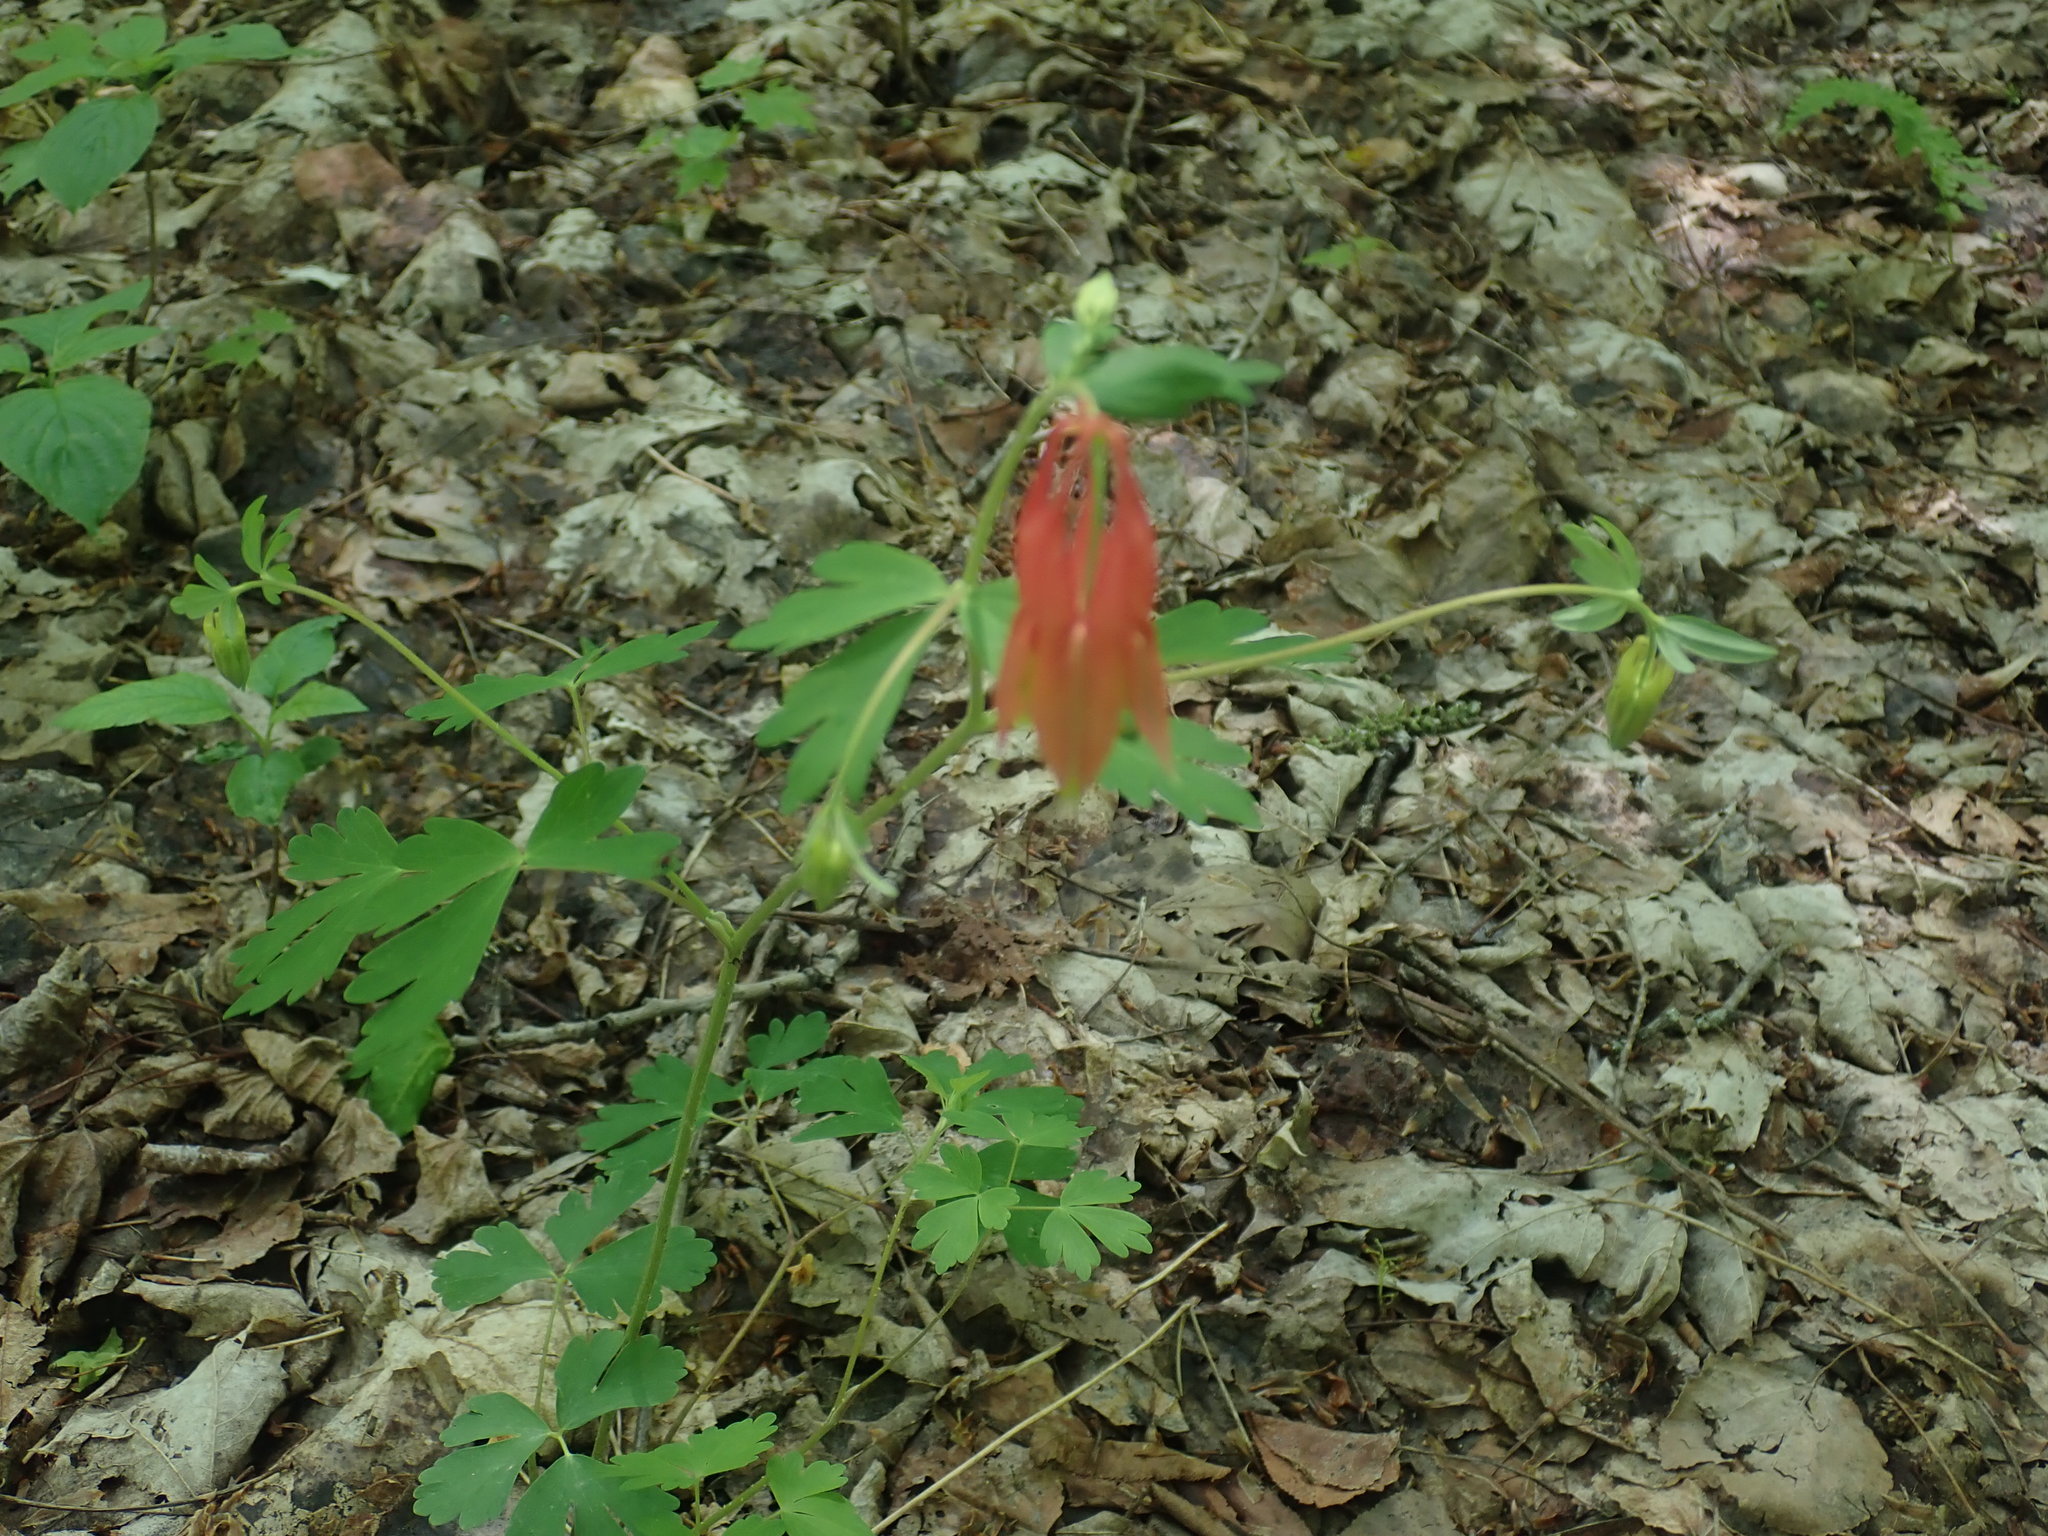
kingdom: Plantae
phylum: Tracheophyta
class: Magnoliopsida
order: Ranunculales
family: Ranunculaceae
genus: Aquilegia
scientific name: Aquilegia canadensis
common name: American columbine
